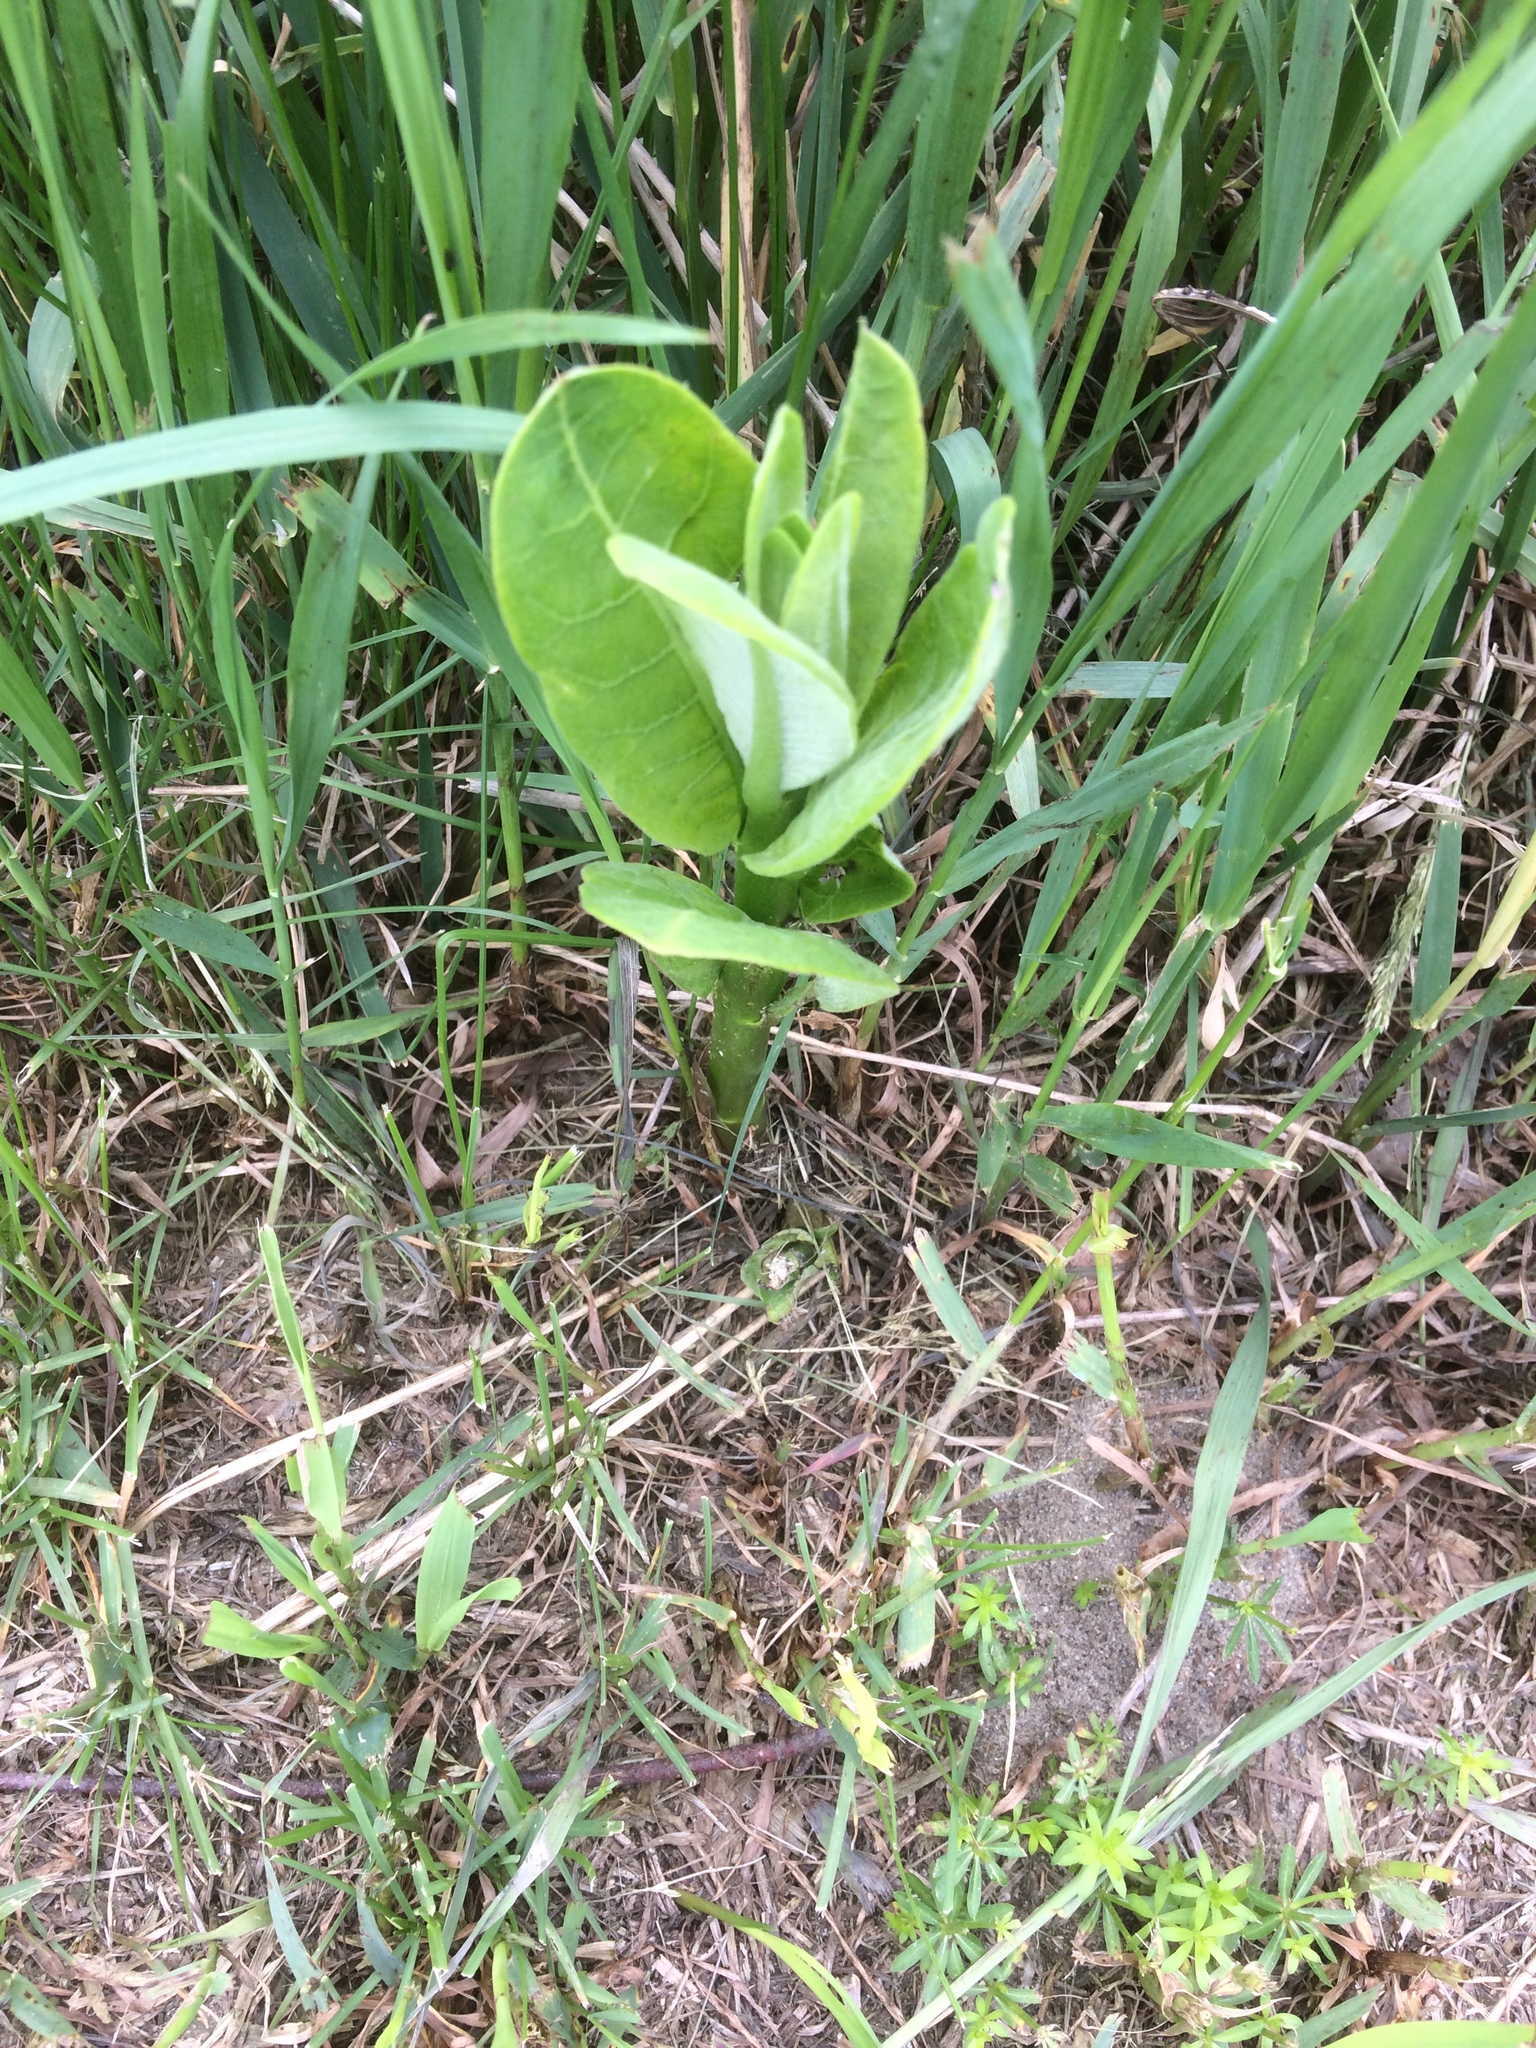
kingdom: Plantae
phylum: Tracheophyta
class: Magnoliopsida
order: Gentianales
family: Apocynaceae
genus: Asclepias
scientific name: Asclepias syriaca
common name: Common milkweed
